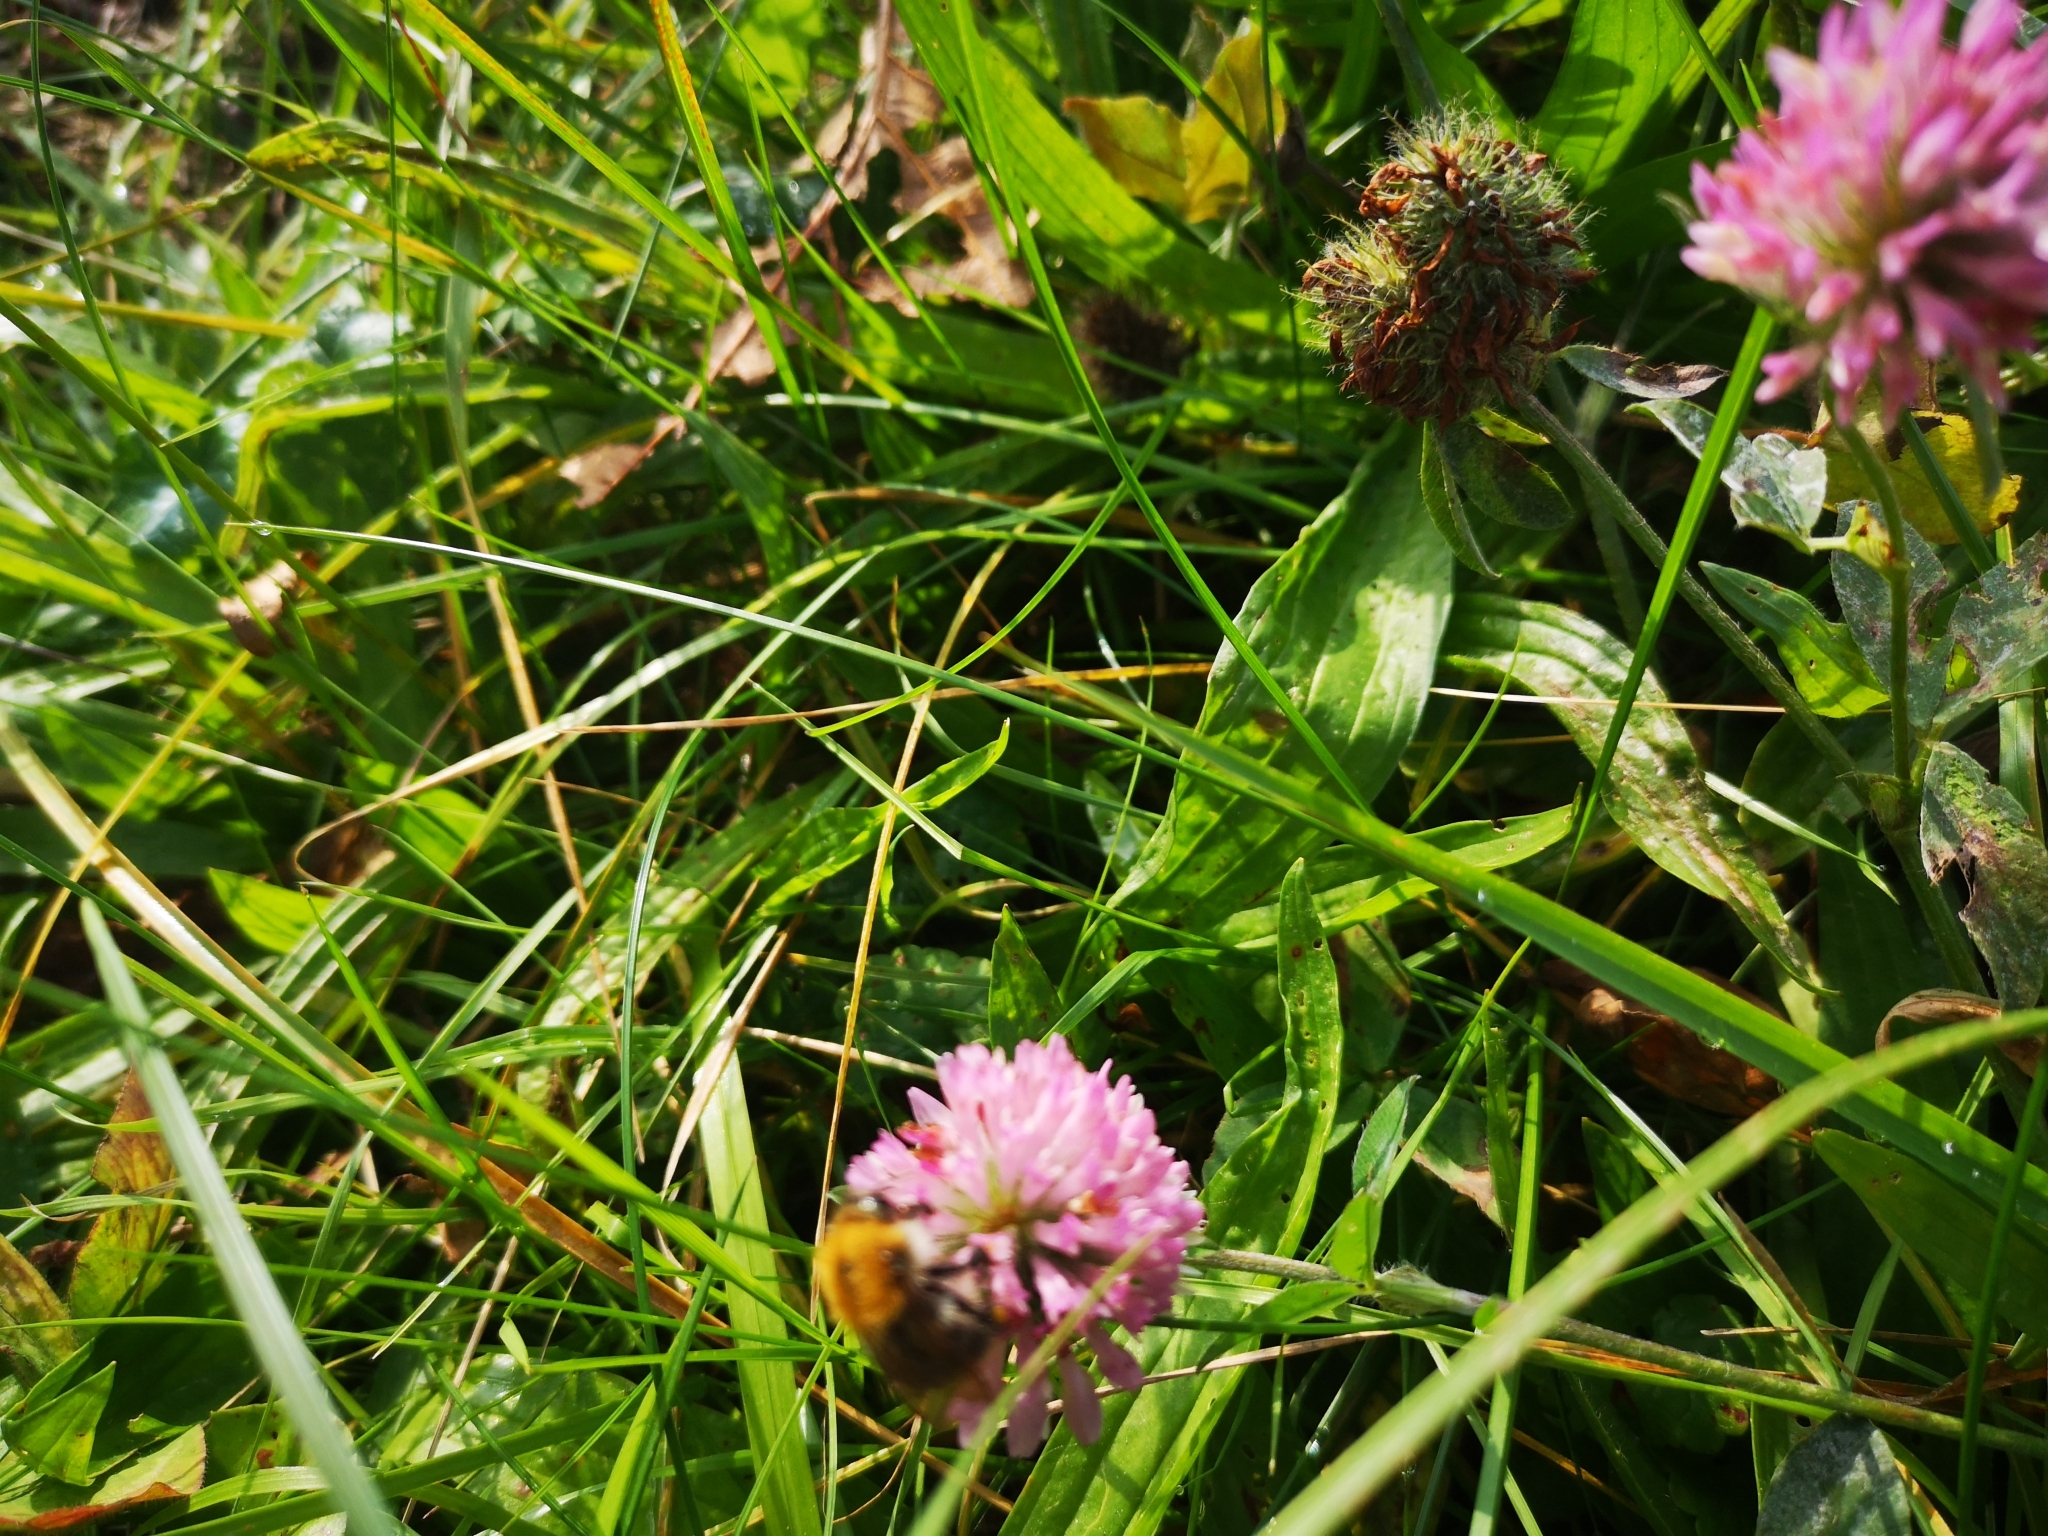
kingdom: Animalia
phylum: Arthropoda
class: Insecta
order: Hymenoptera
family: Apidae
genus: Bombus
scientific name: Bombus pascuorum
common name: Common carder bee
